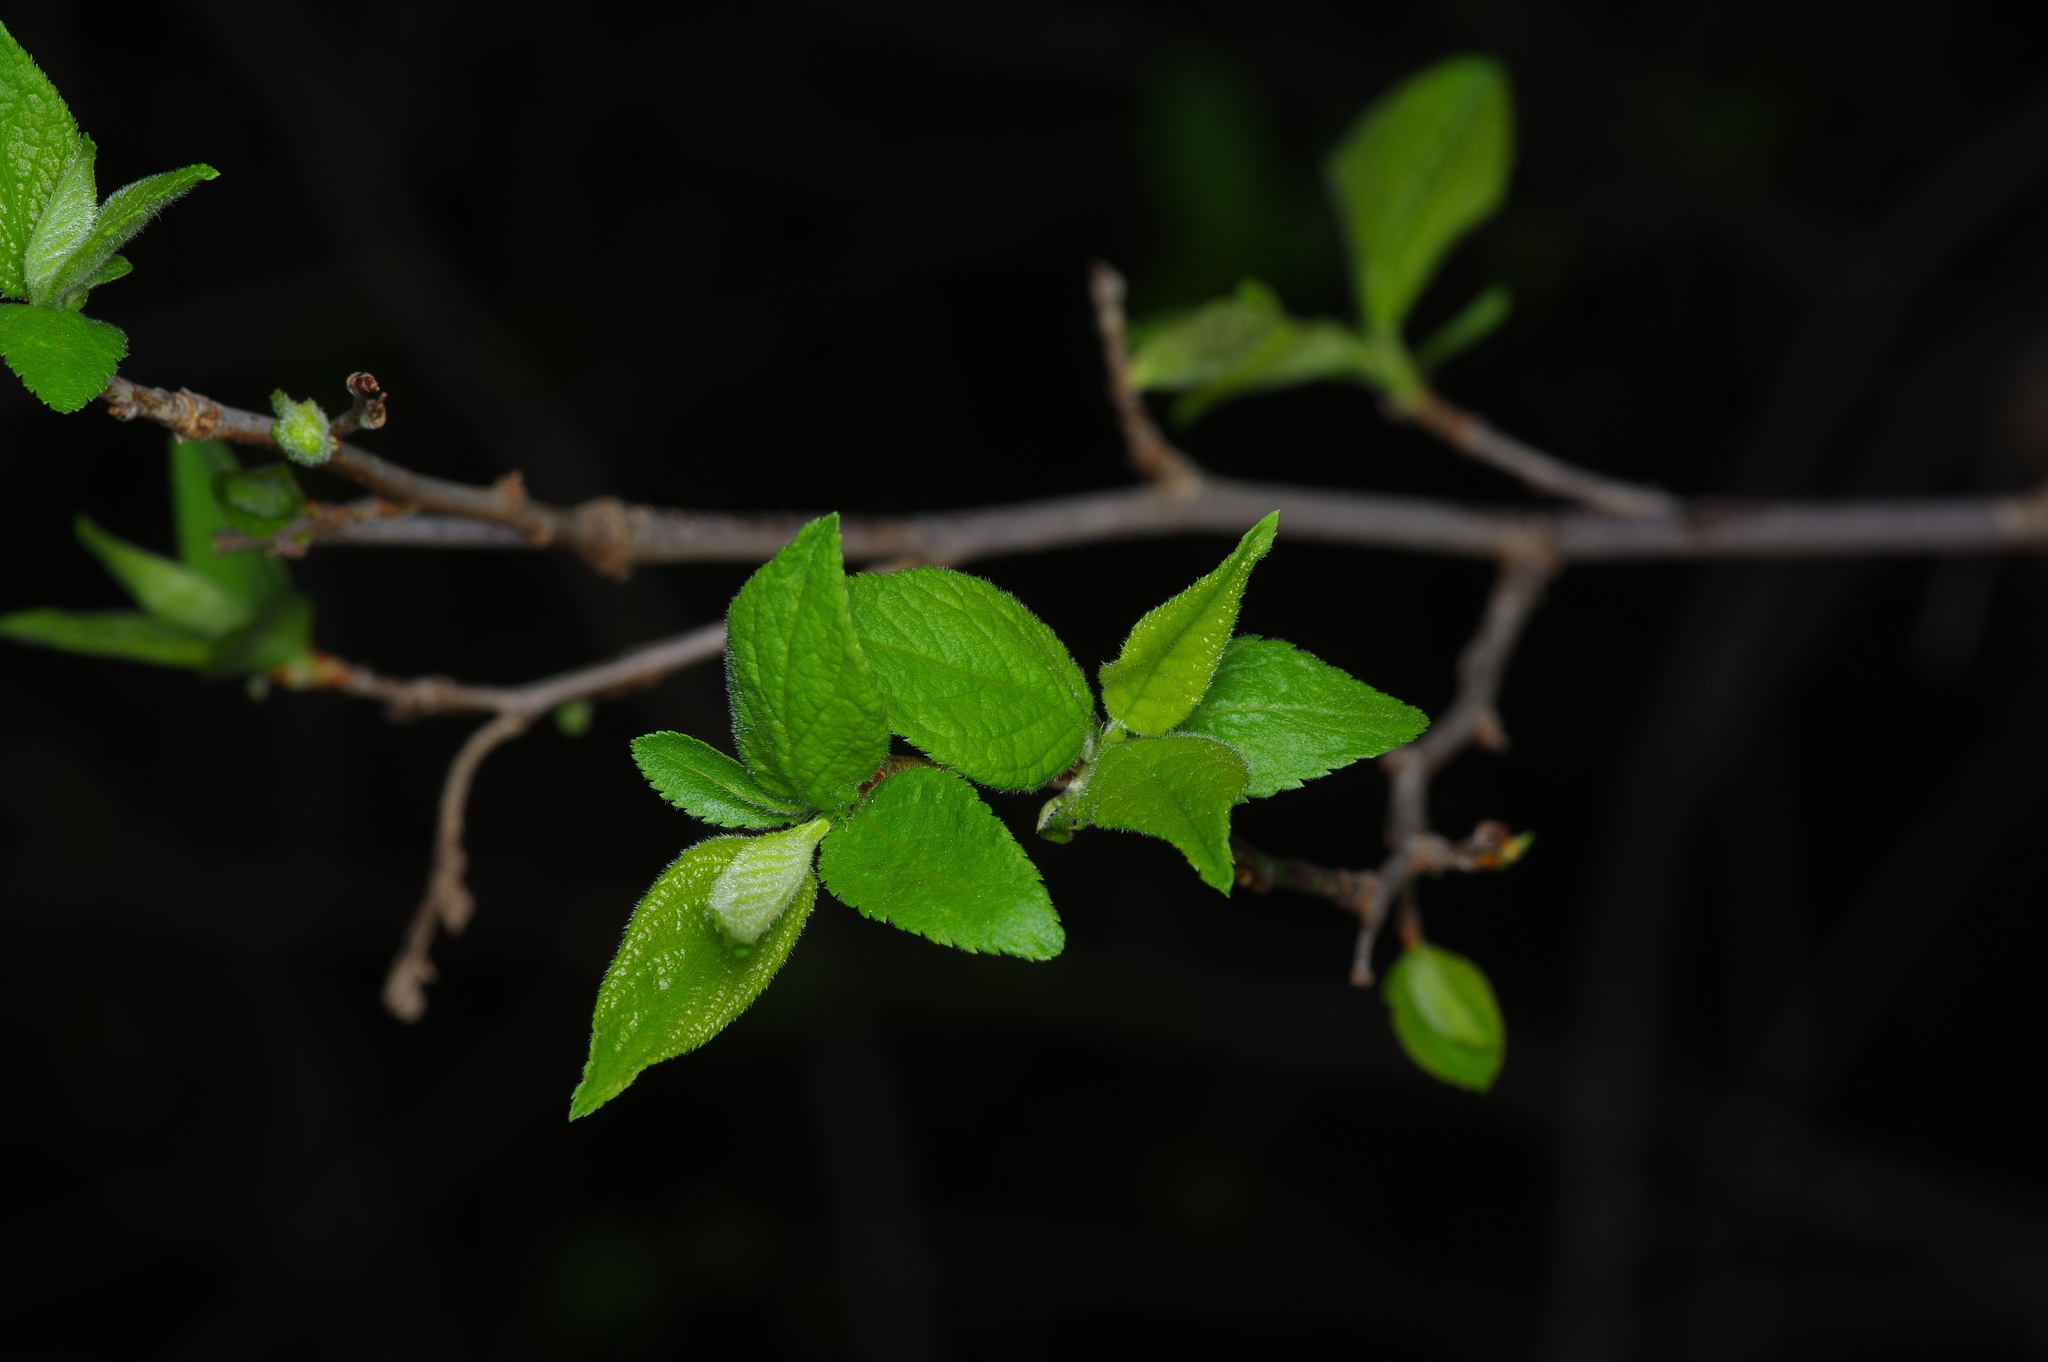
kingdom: Plantae
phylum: Tracheophyta
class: Magnoliopsida
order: Rosales
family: Rosaceae
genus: Prunus
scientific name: Prunus mexicana
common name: Mexican plum
